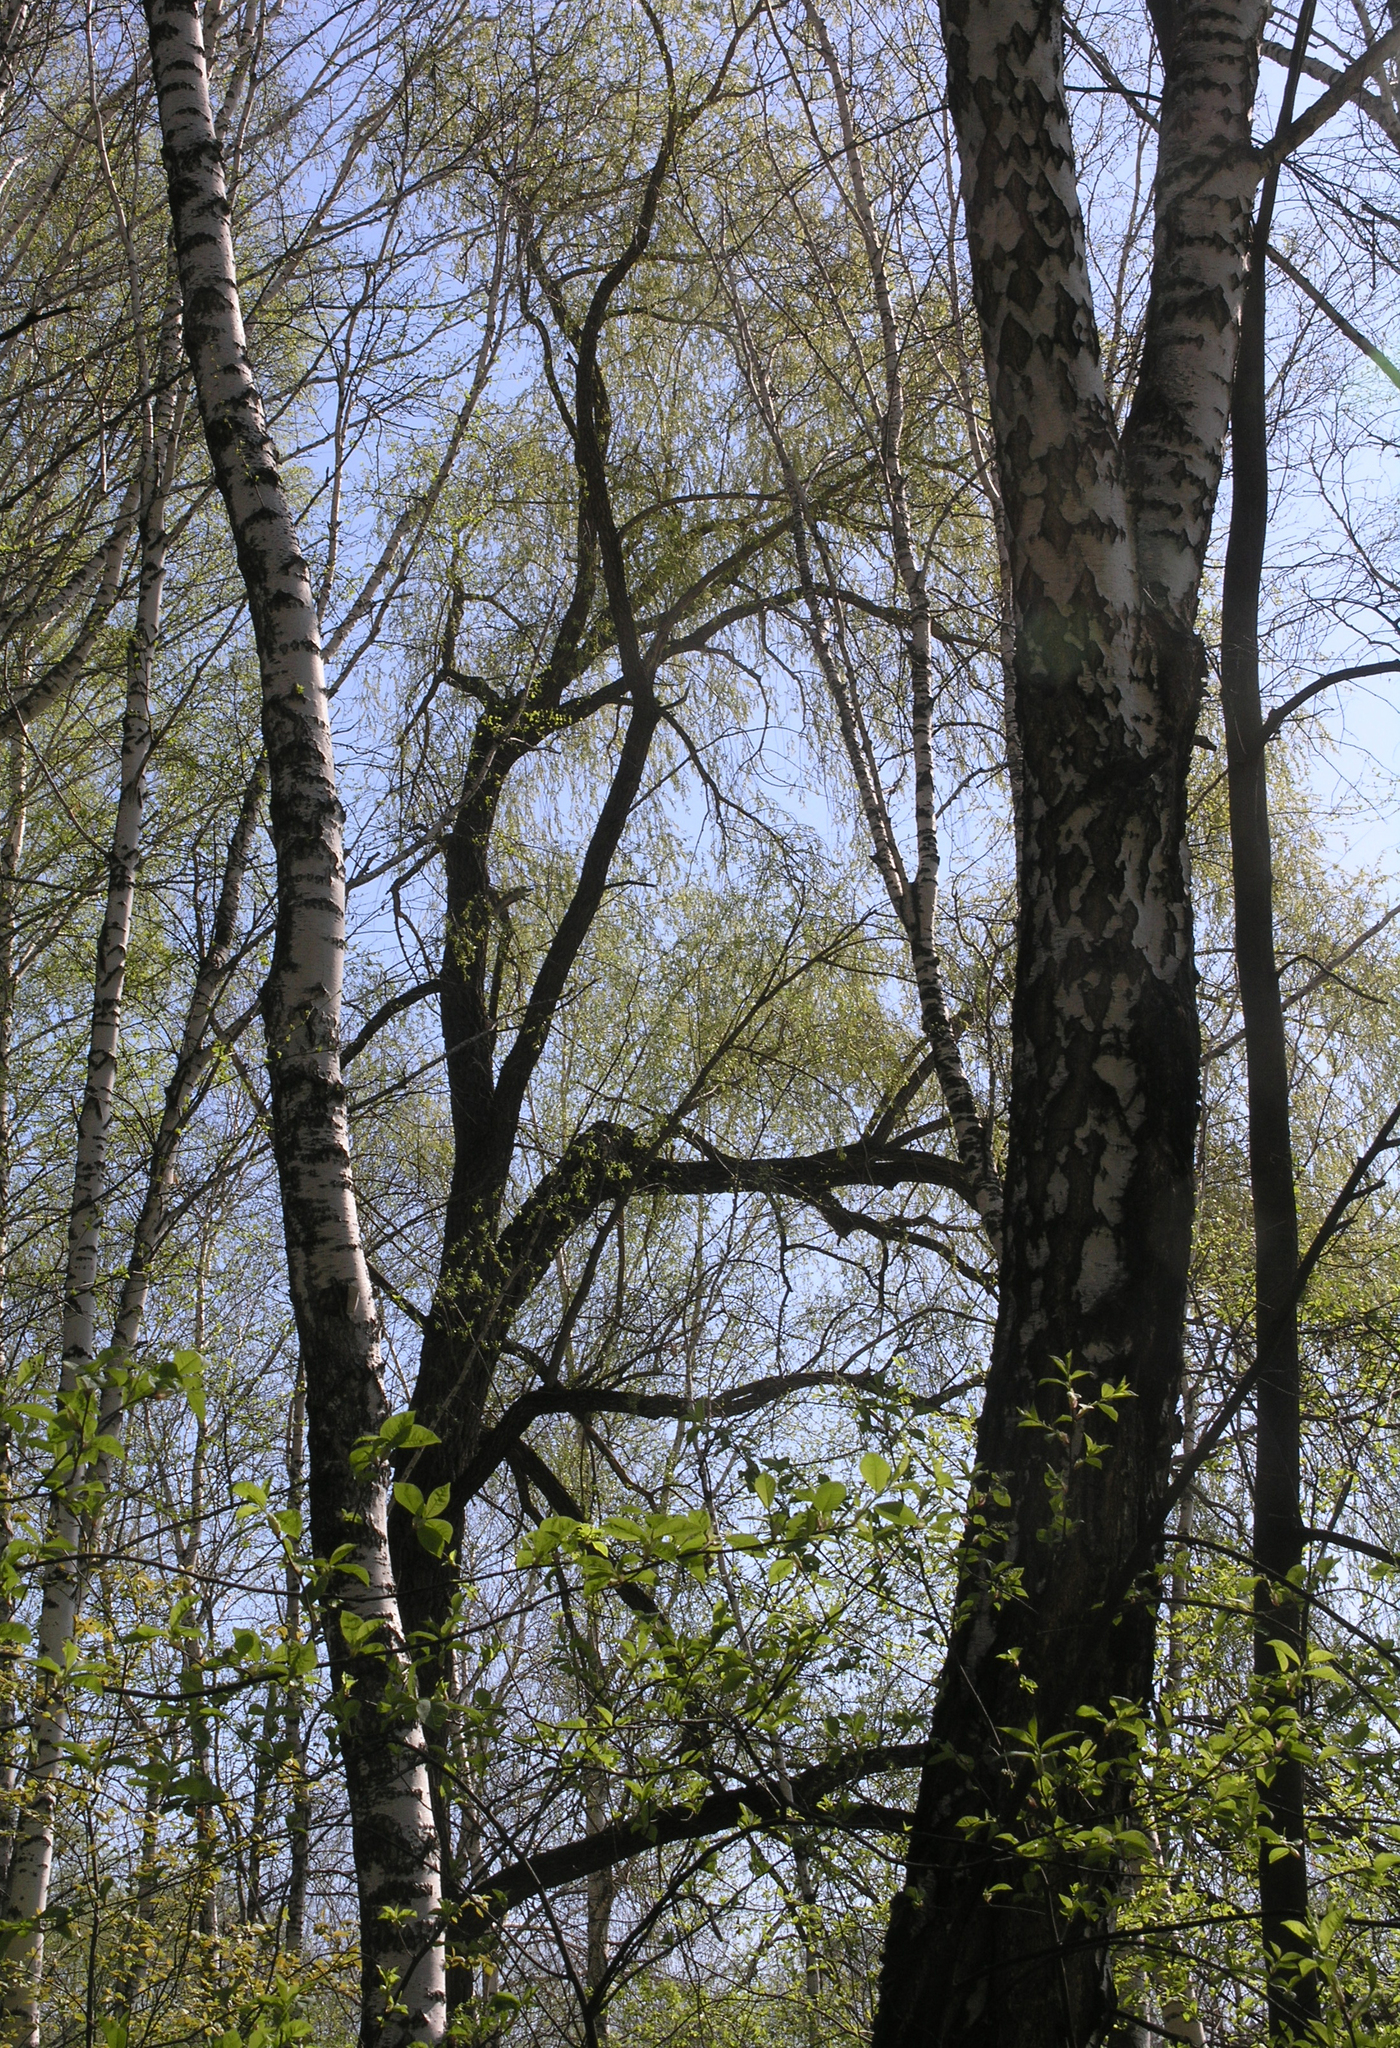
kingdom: Plantae
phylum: Tracheophyta
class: Magnoliopsida
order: Malpighiales
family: Salicaceae
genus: Salix
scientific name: Salix alba
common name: White willow
